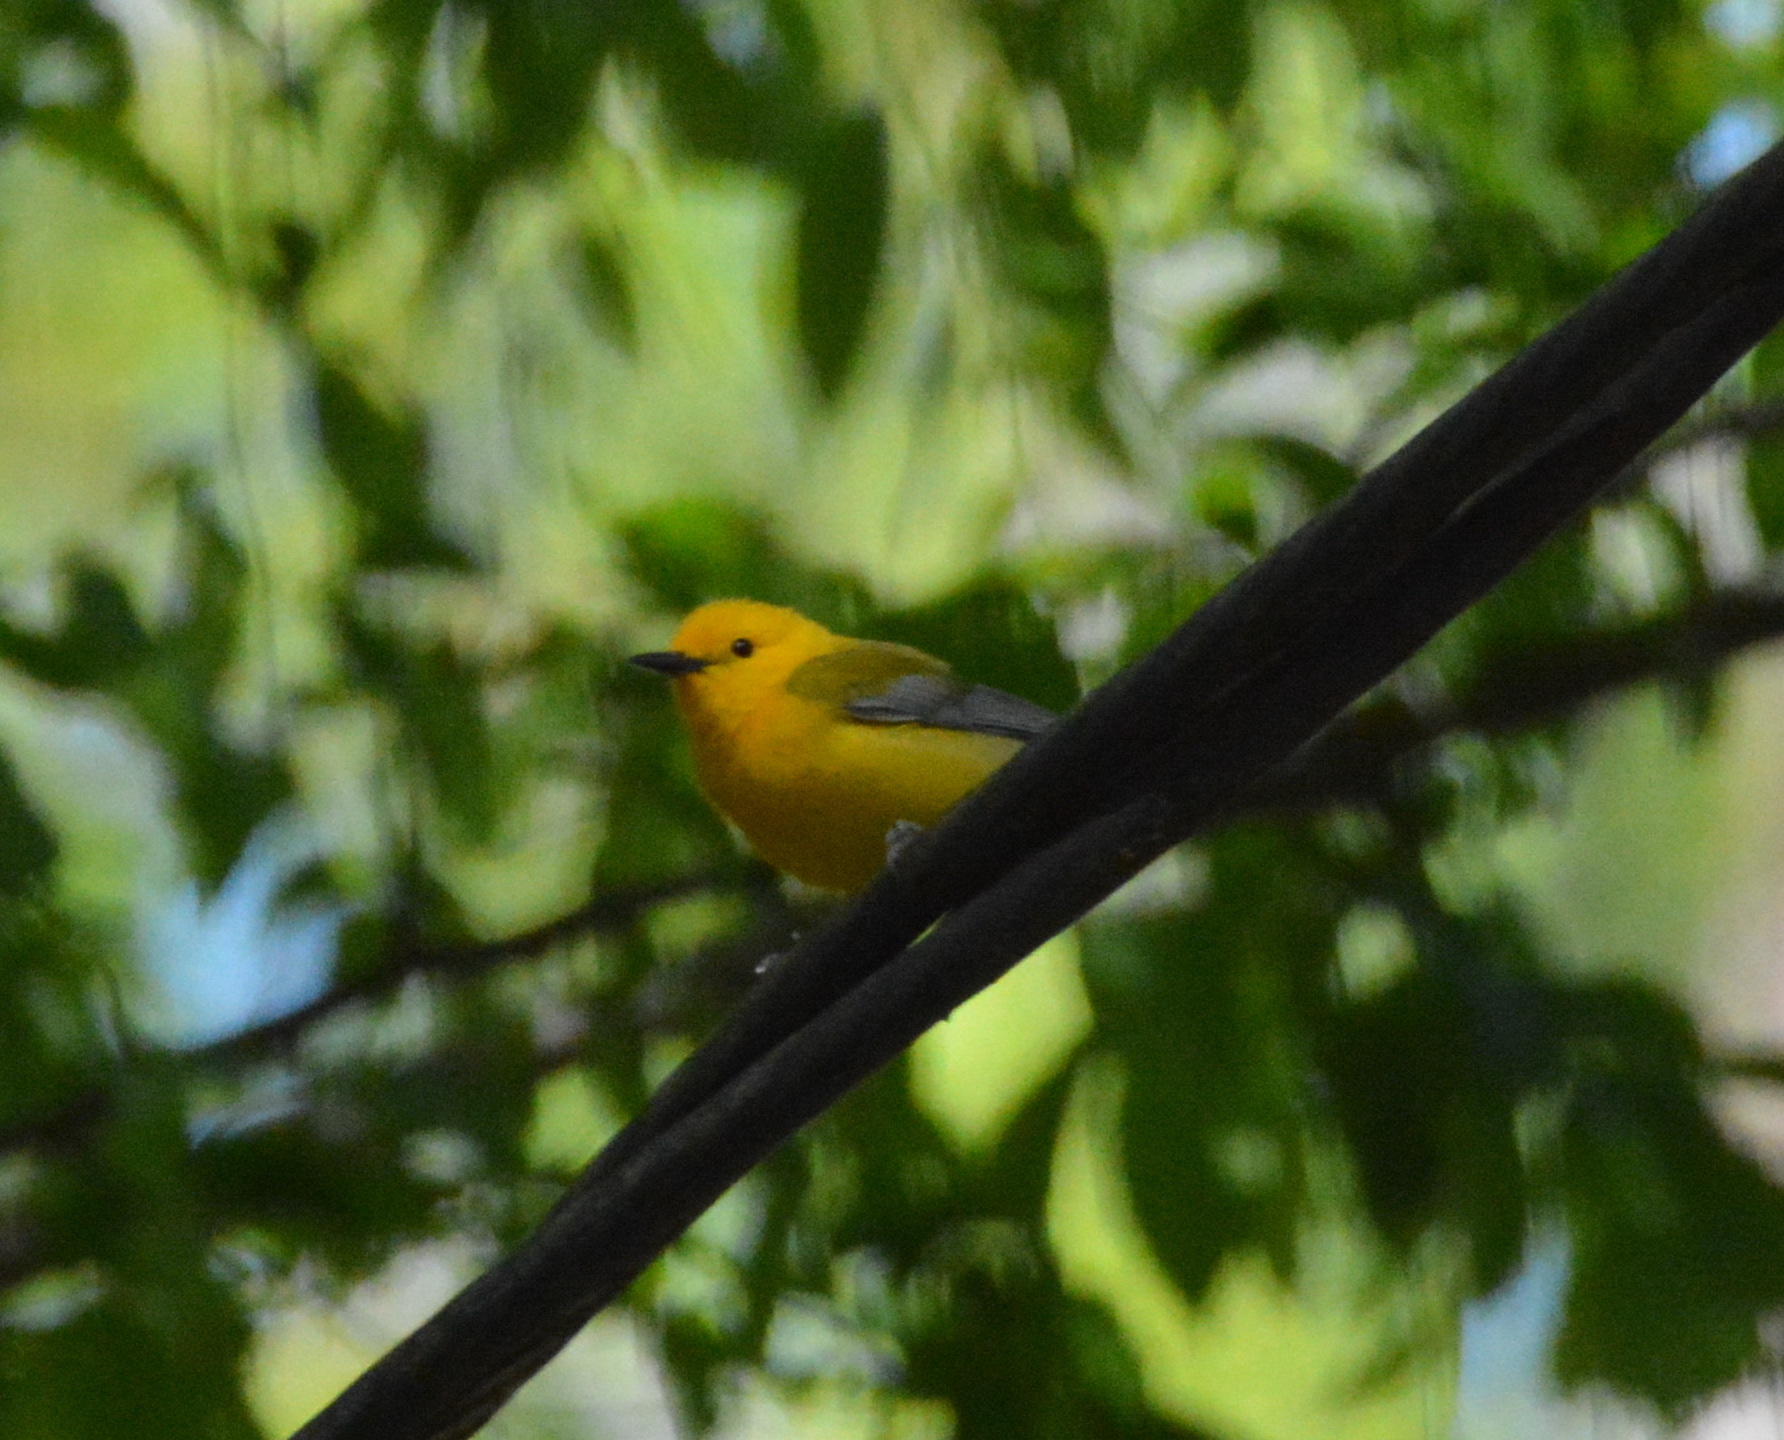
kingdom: Animalia
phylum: Chordata
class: Aves
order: Passeriformes
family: Parulidae
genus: Protonotaria
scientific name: Protonotaria citrea
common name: Prothonotary warbler
